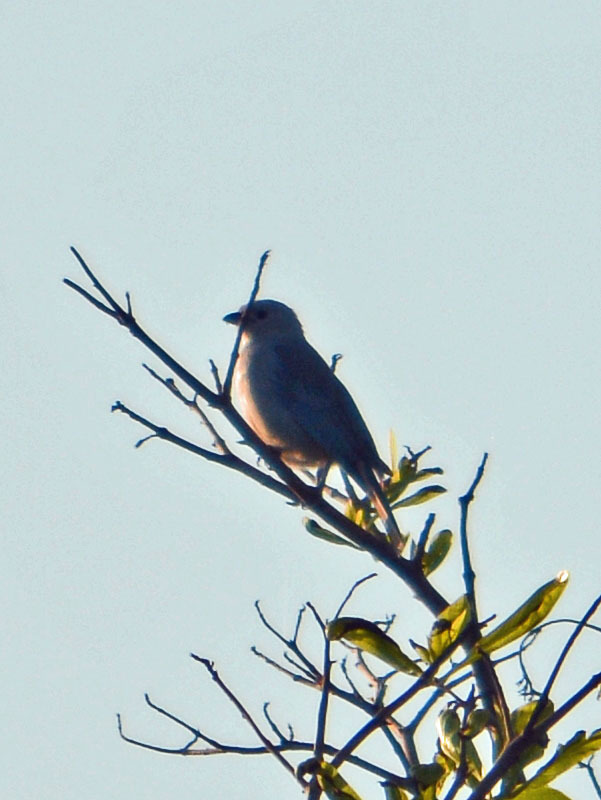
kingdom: Animalia
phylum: Chordata
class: Aves
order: Passeriformes
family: Thraupidae
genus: Thraupis
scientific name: Thraupis episcopus
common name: Blue-grey tanager
